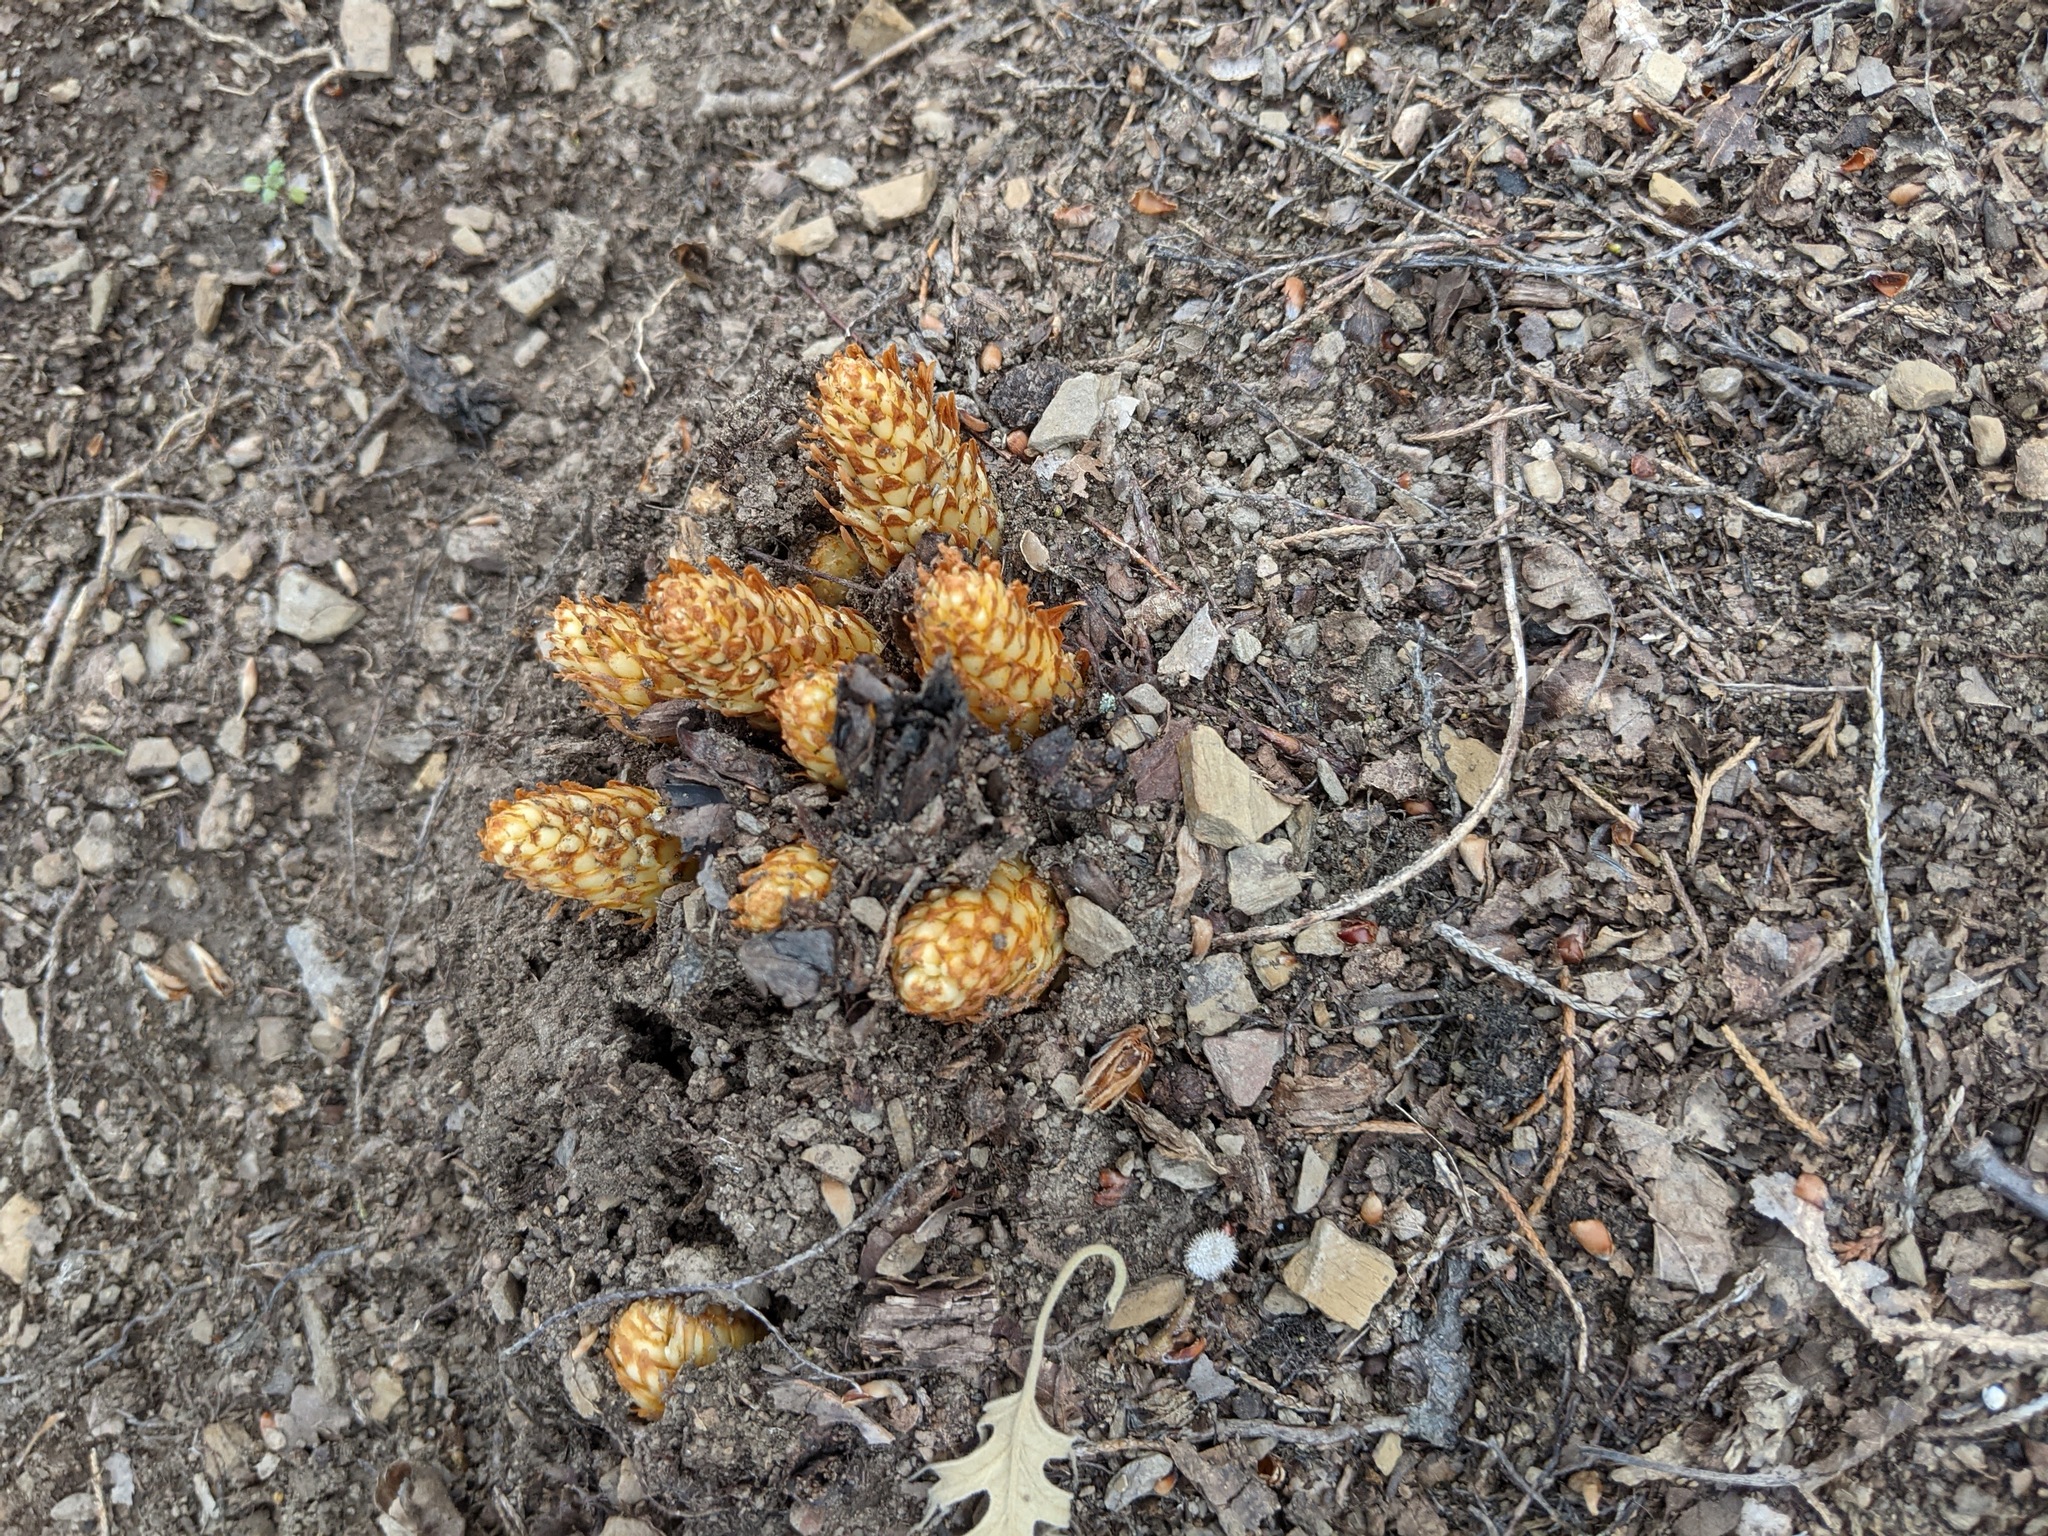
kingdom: Plantae
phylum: Tracheophyta
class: Magnoliopsida
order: Lamiales
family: Orobanchaceae
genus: Conopholis
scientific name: Conopholis americana
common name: American cancer-root
